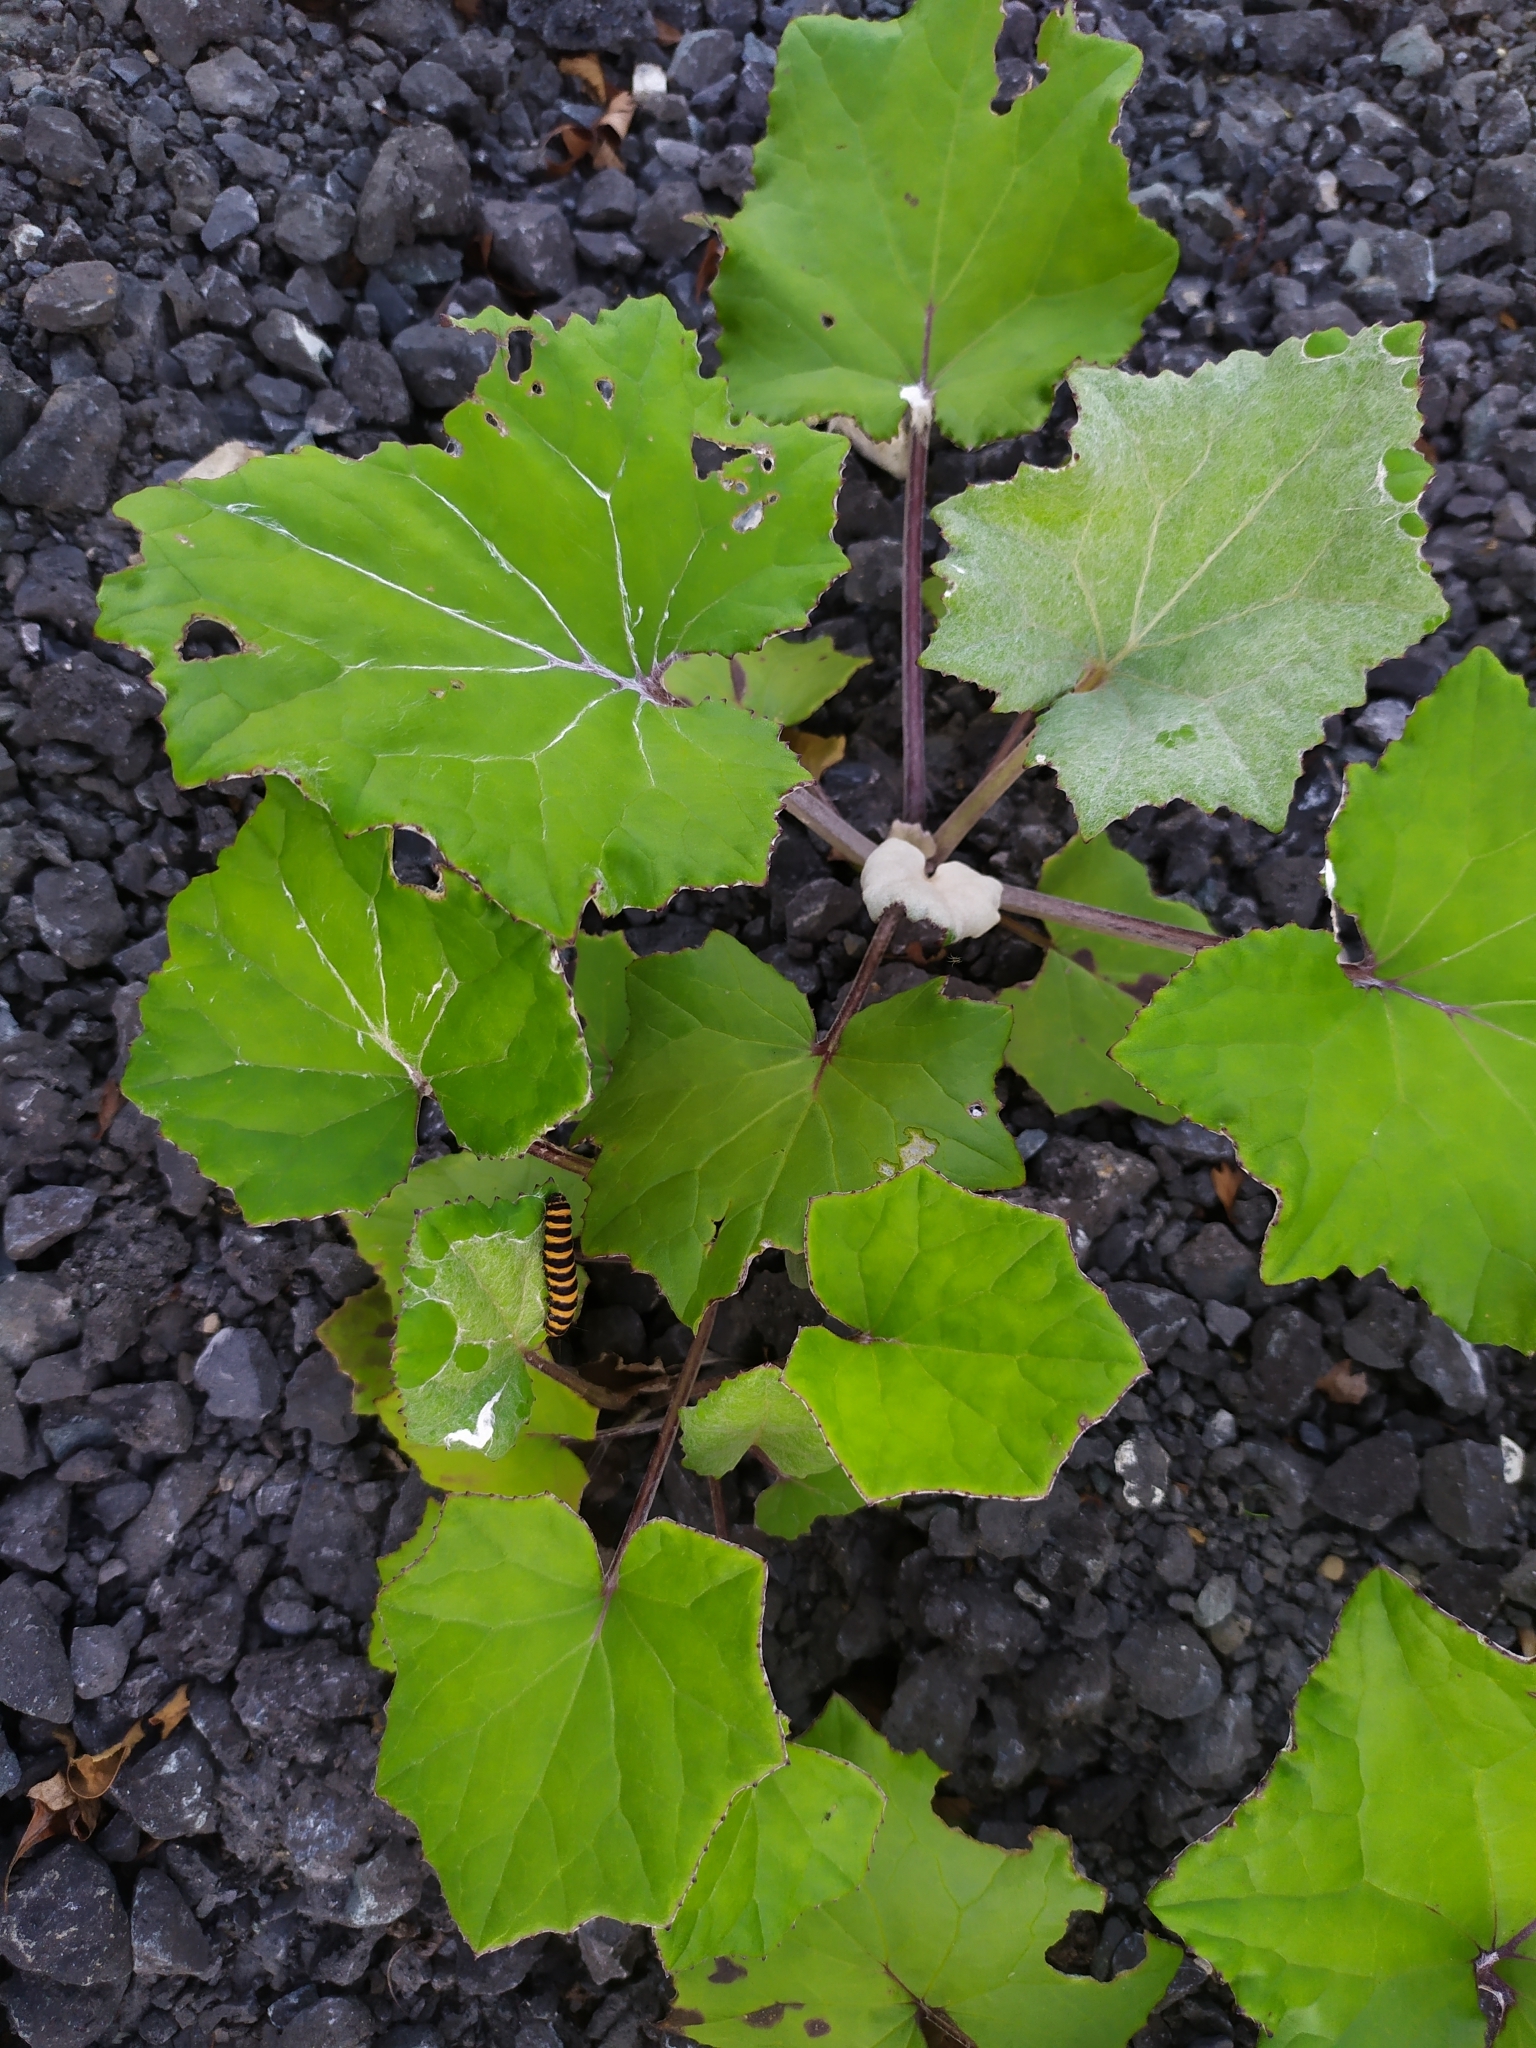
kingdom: Animalia
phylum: Arthropoda
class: Insecta
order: Lepidoptera
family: Erebidae
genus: Tyria
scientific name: Tyria jacobaeae
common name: Cinnabar
